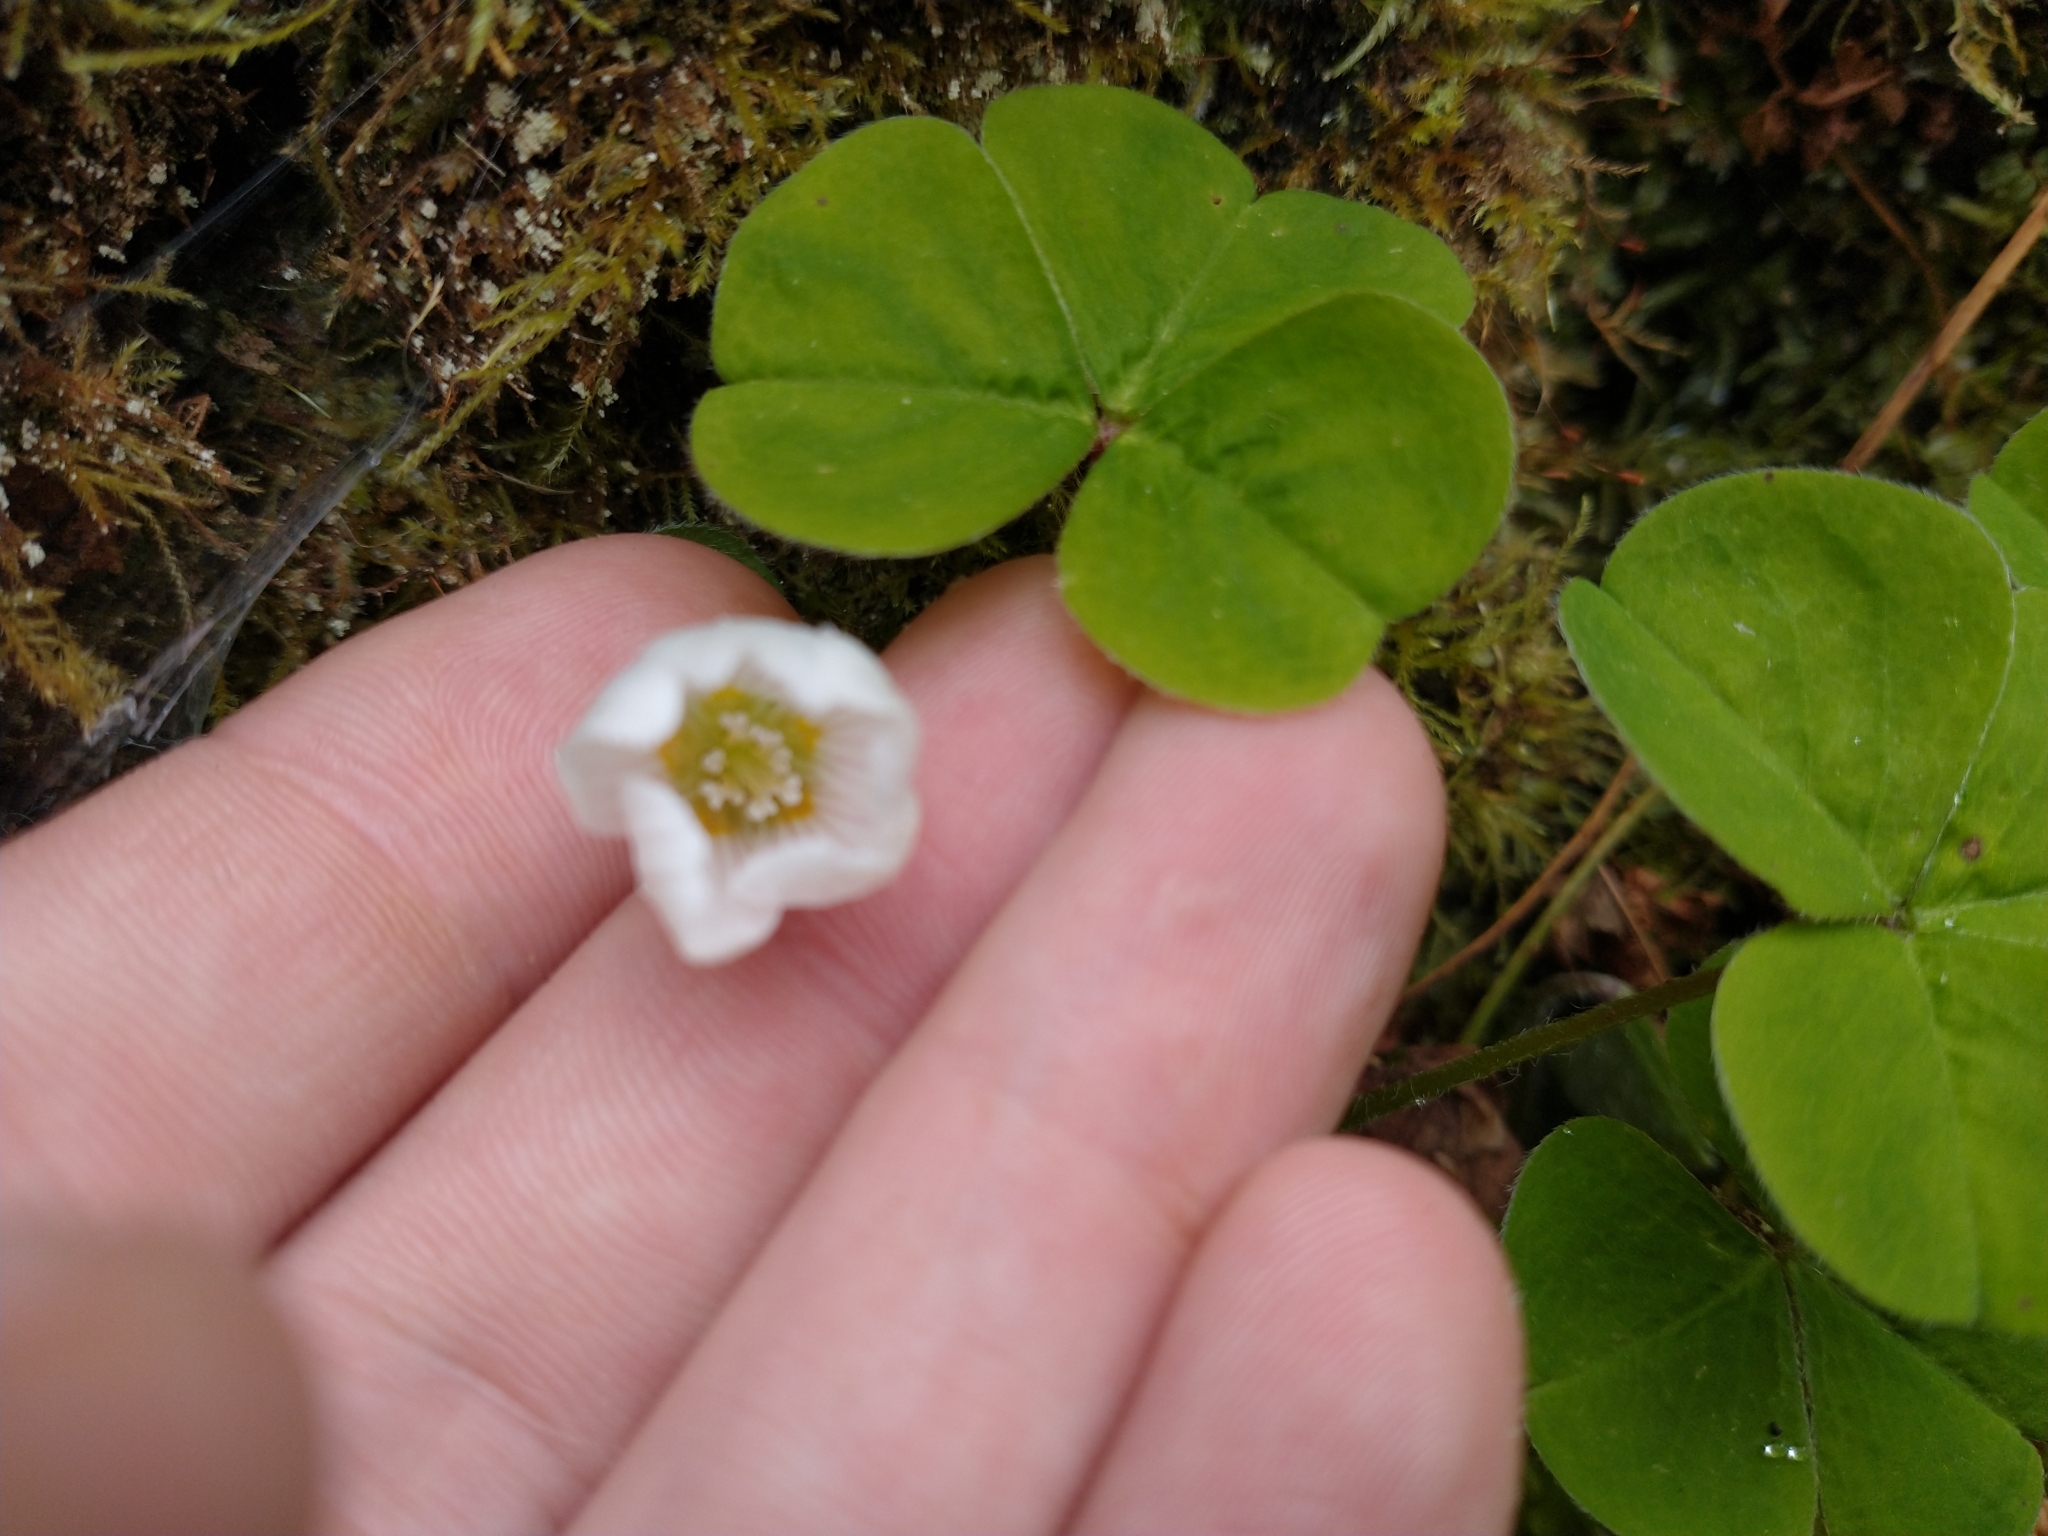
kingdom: Plantae
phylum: Tracheophyta
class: Magnoliopsida
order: Oxalidales
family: Oxalidaceae
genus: Oxalis
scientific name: Oxalis oregana
